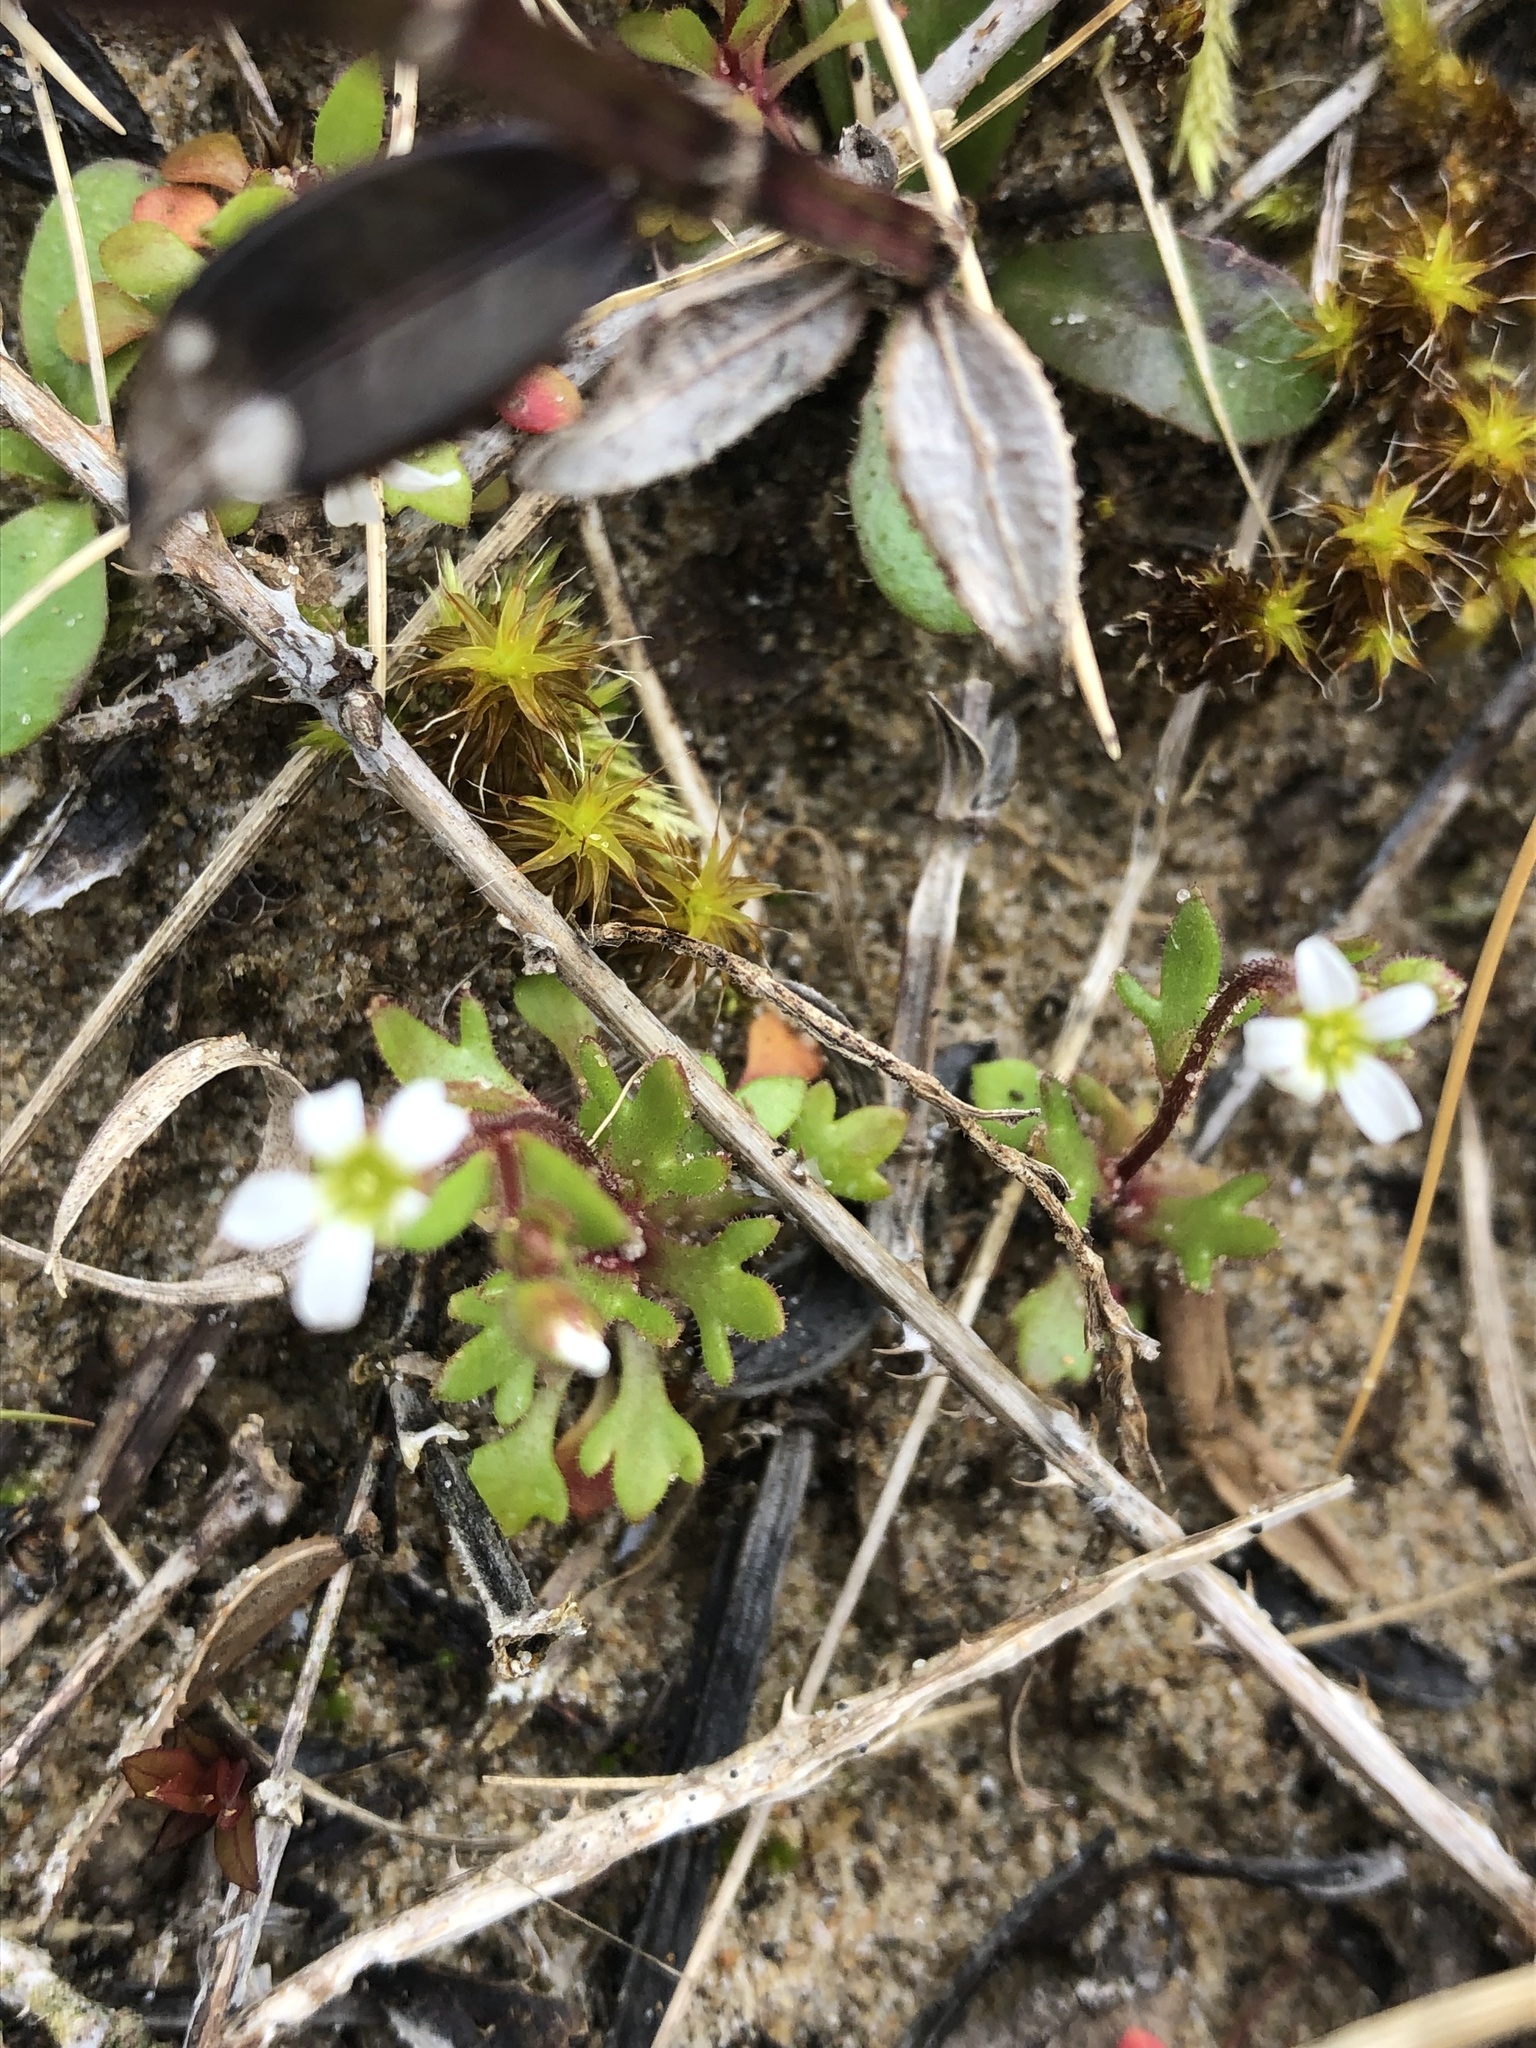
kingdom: Plantae
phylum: Tracheophyta
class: Magnoliopsida
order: Saxifragales
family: Saxifragaceae
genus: Saxifraga
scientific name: Saxifraga tridactylites
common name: Rue-leaved saxifrage
